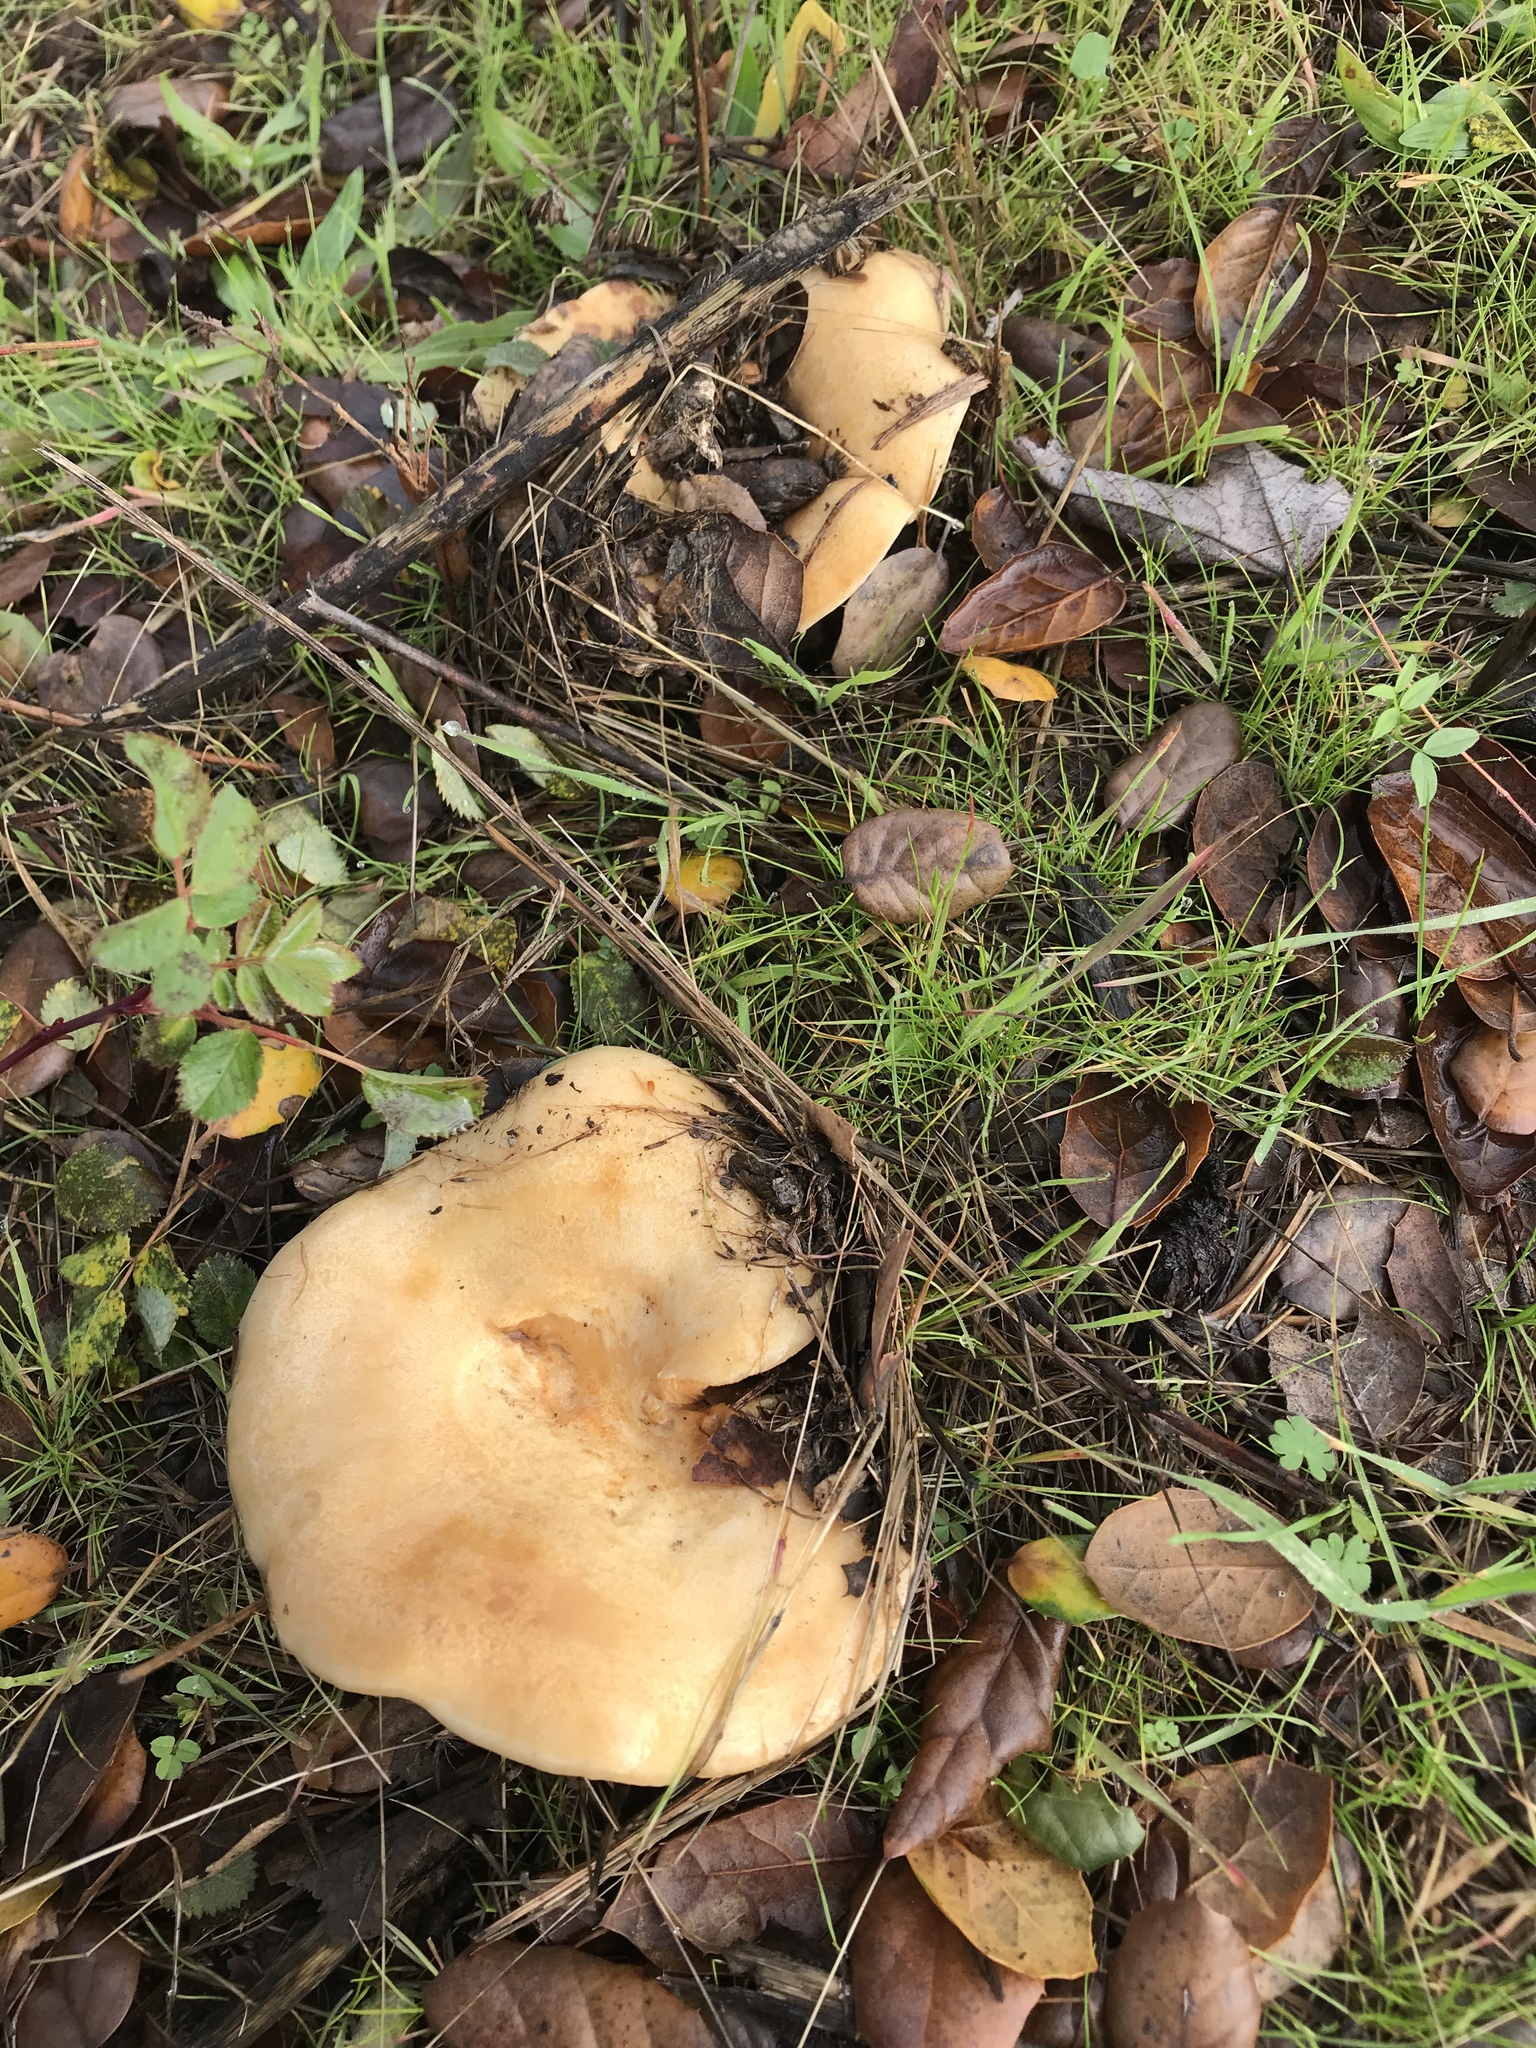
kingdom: Fungi
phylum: Basidiomycota
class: Agaricomycetes
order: Russulales
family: Russulaceae
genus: Lactarius
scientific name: Lactarius alnicola
